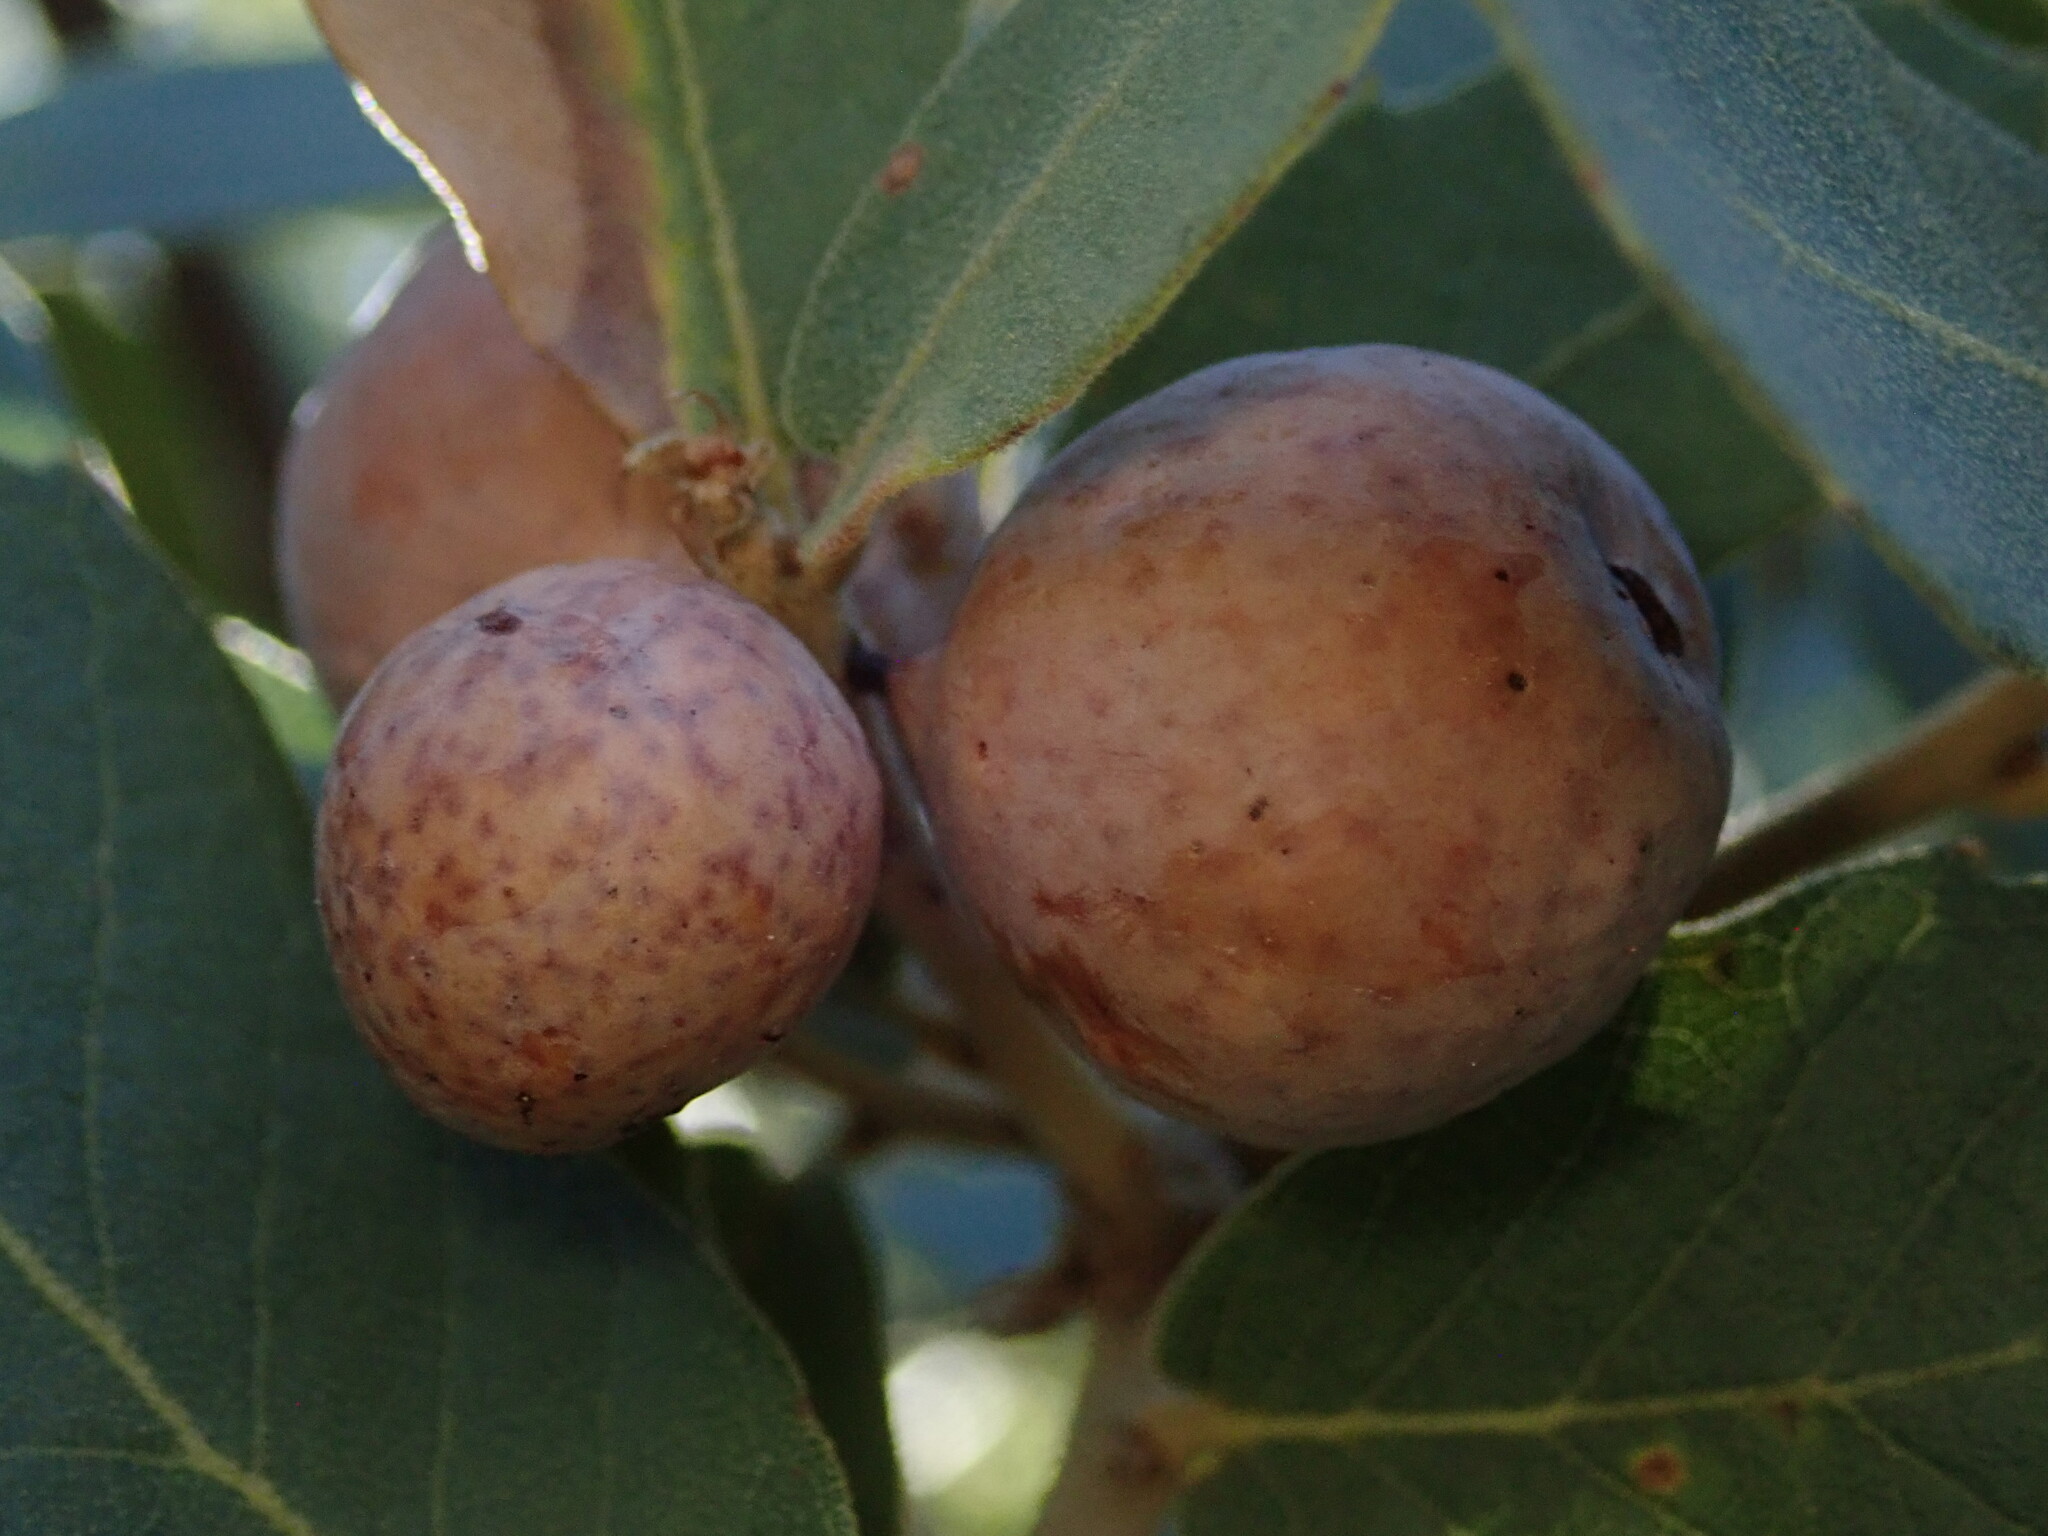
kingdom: Animalia
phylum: Arthropoda
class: Insecta
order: Hymenoptera
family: Cynipidae
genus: Atrusca
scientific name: Atrusca
